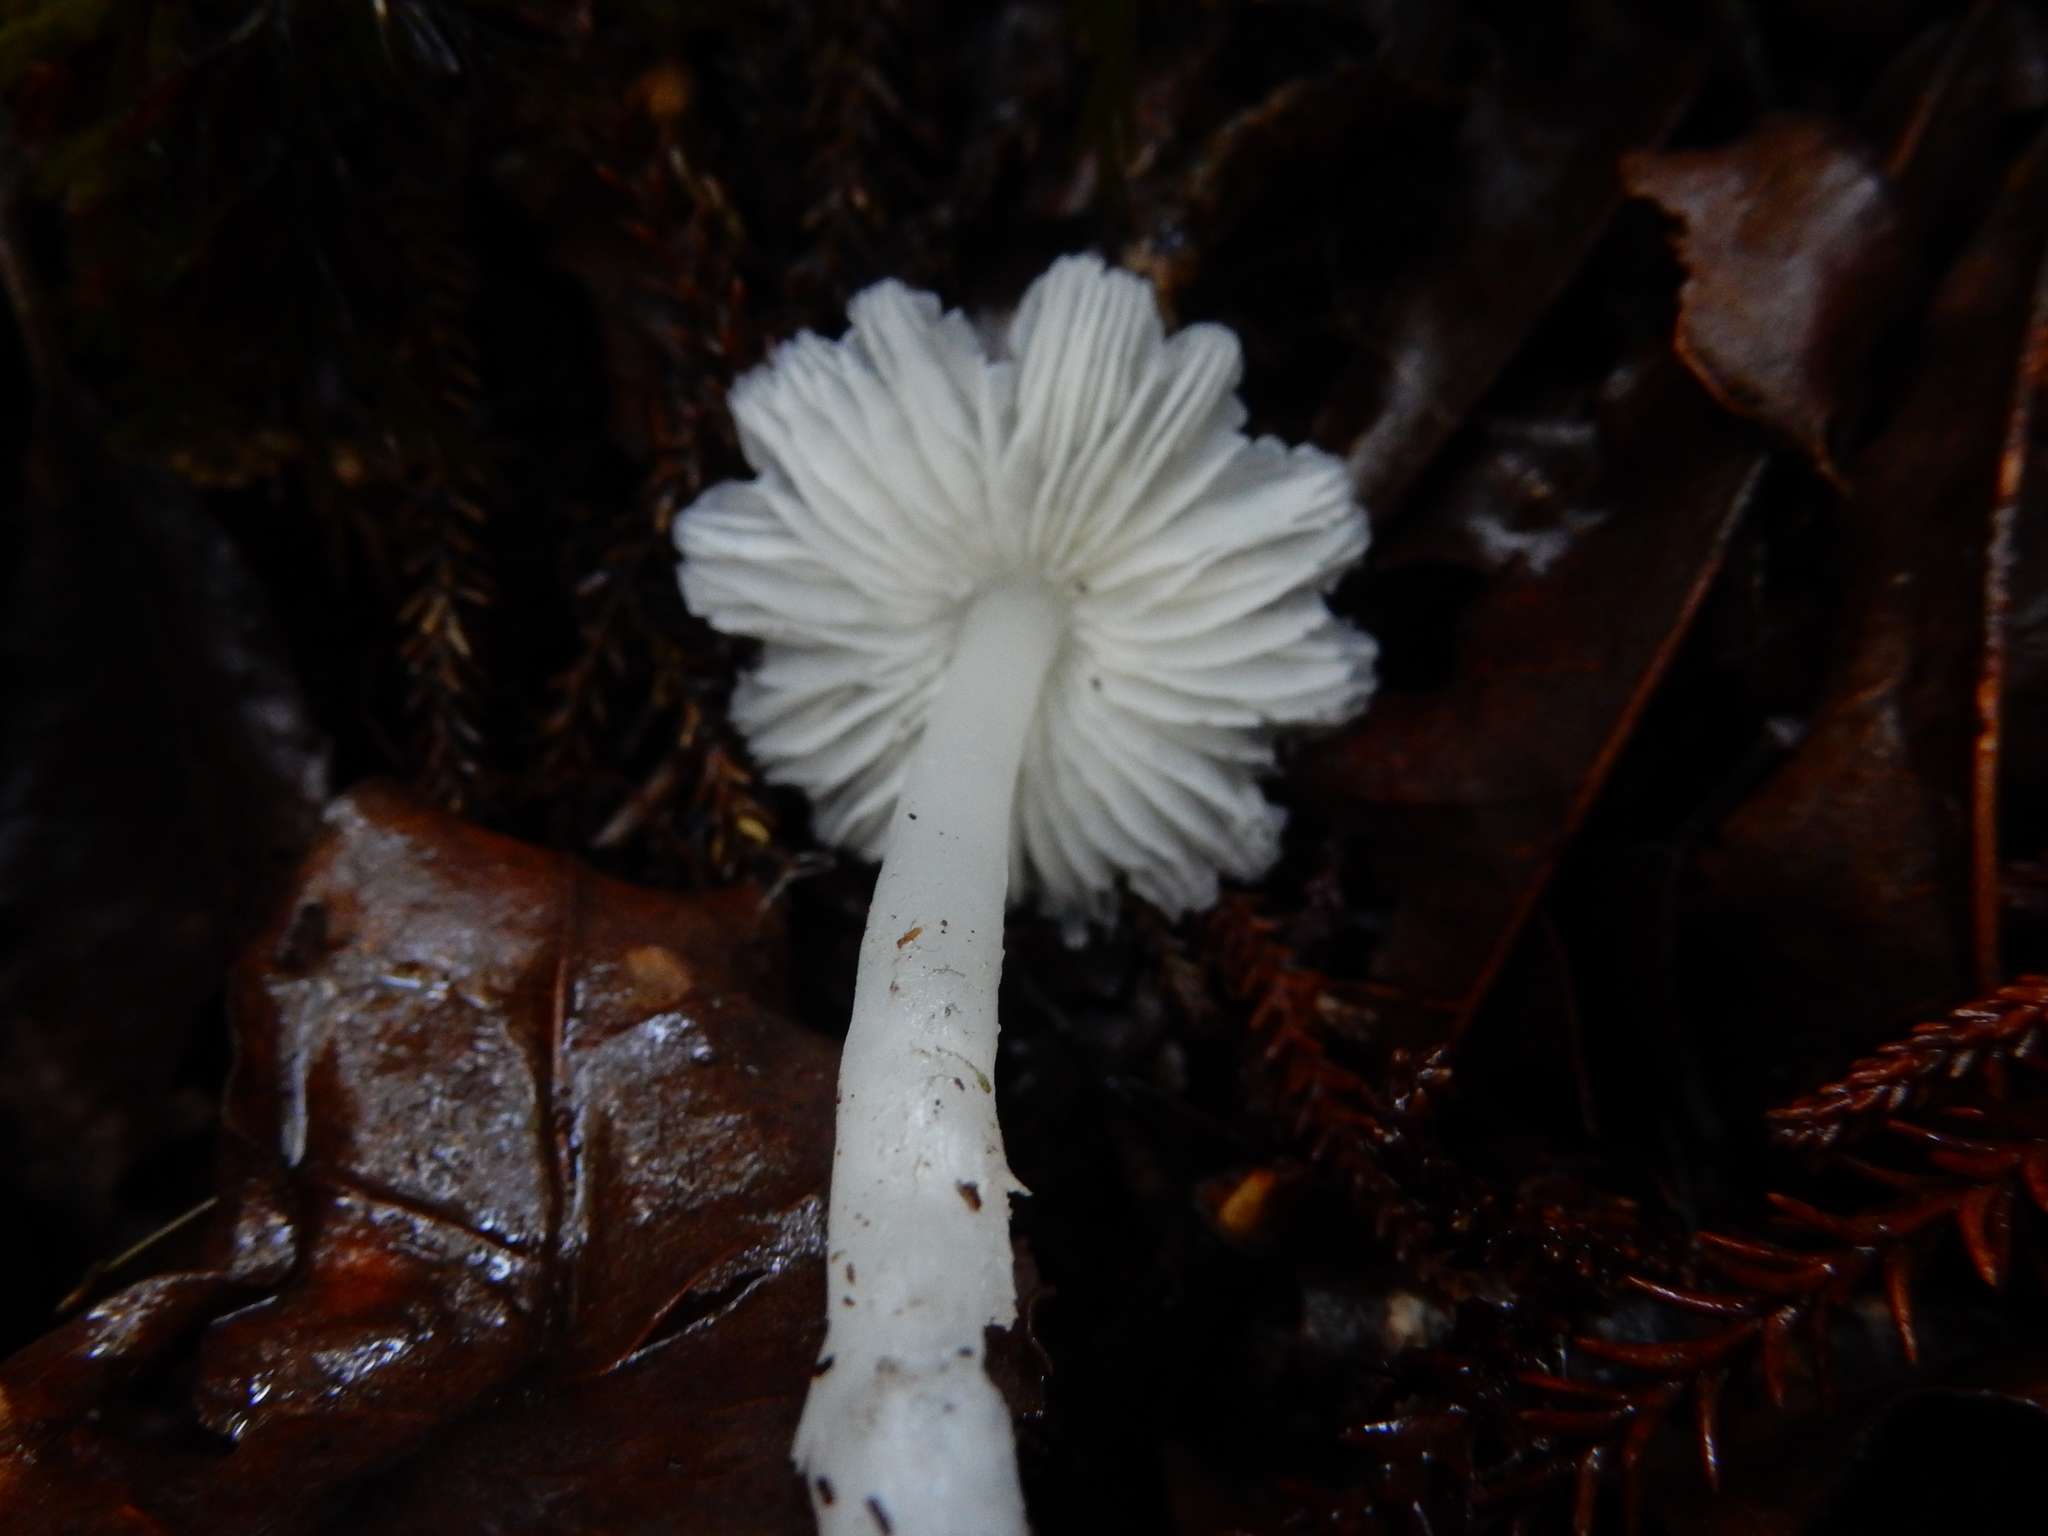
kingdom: Fungi
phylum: Basidiomycota
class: Agaricomycetes
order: Agaricales
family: Hygrophoraceae
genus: Humidicutis
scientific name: Humidicutis mavis
